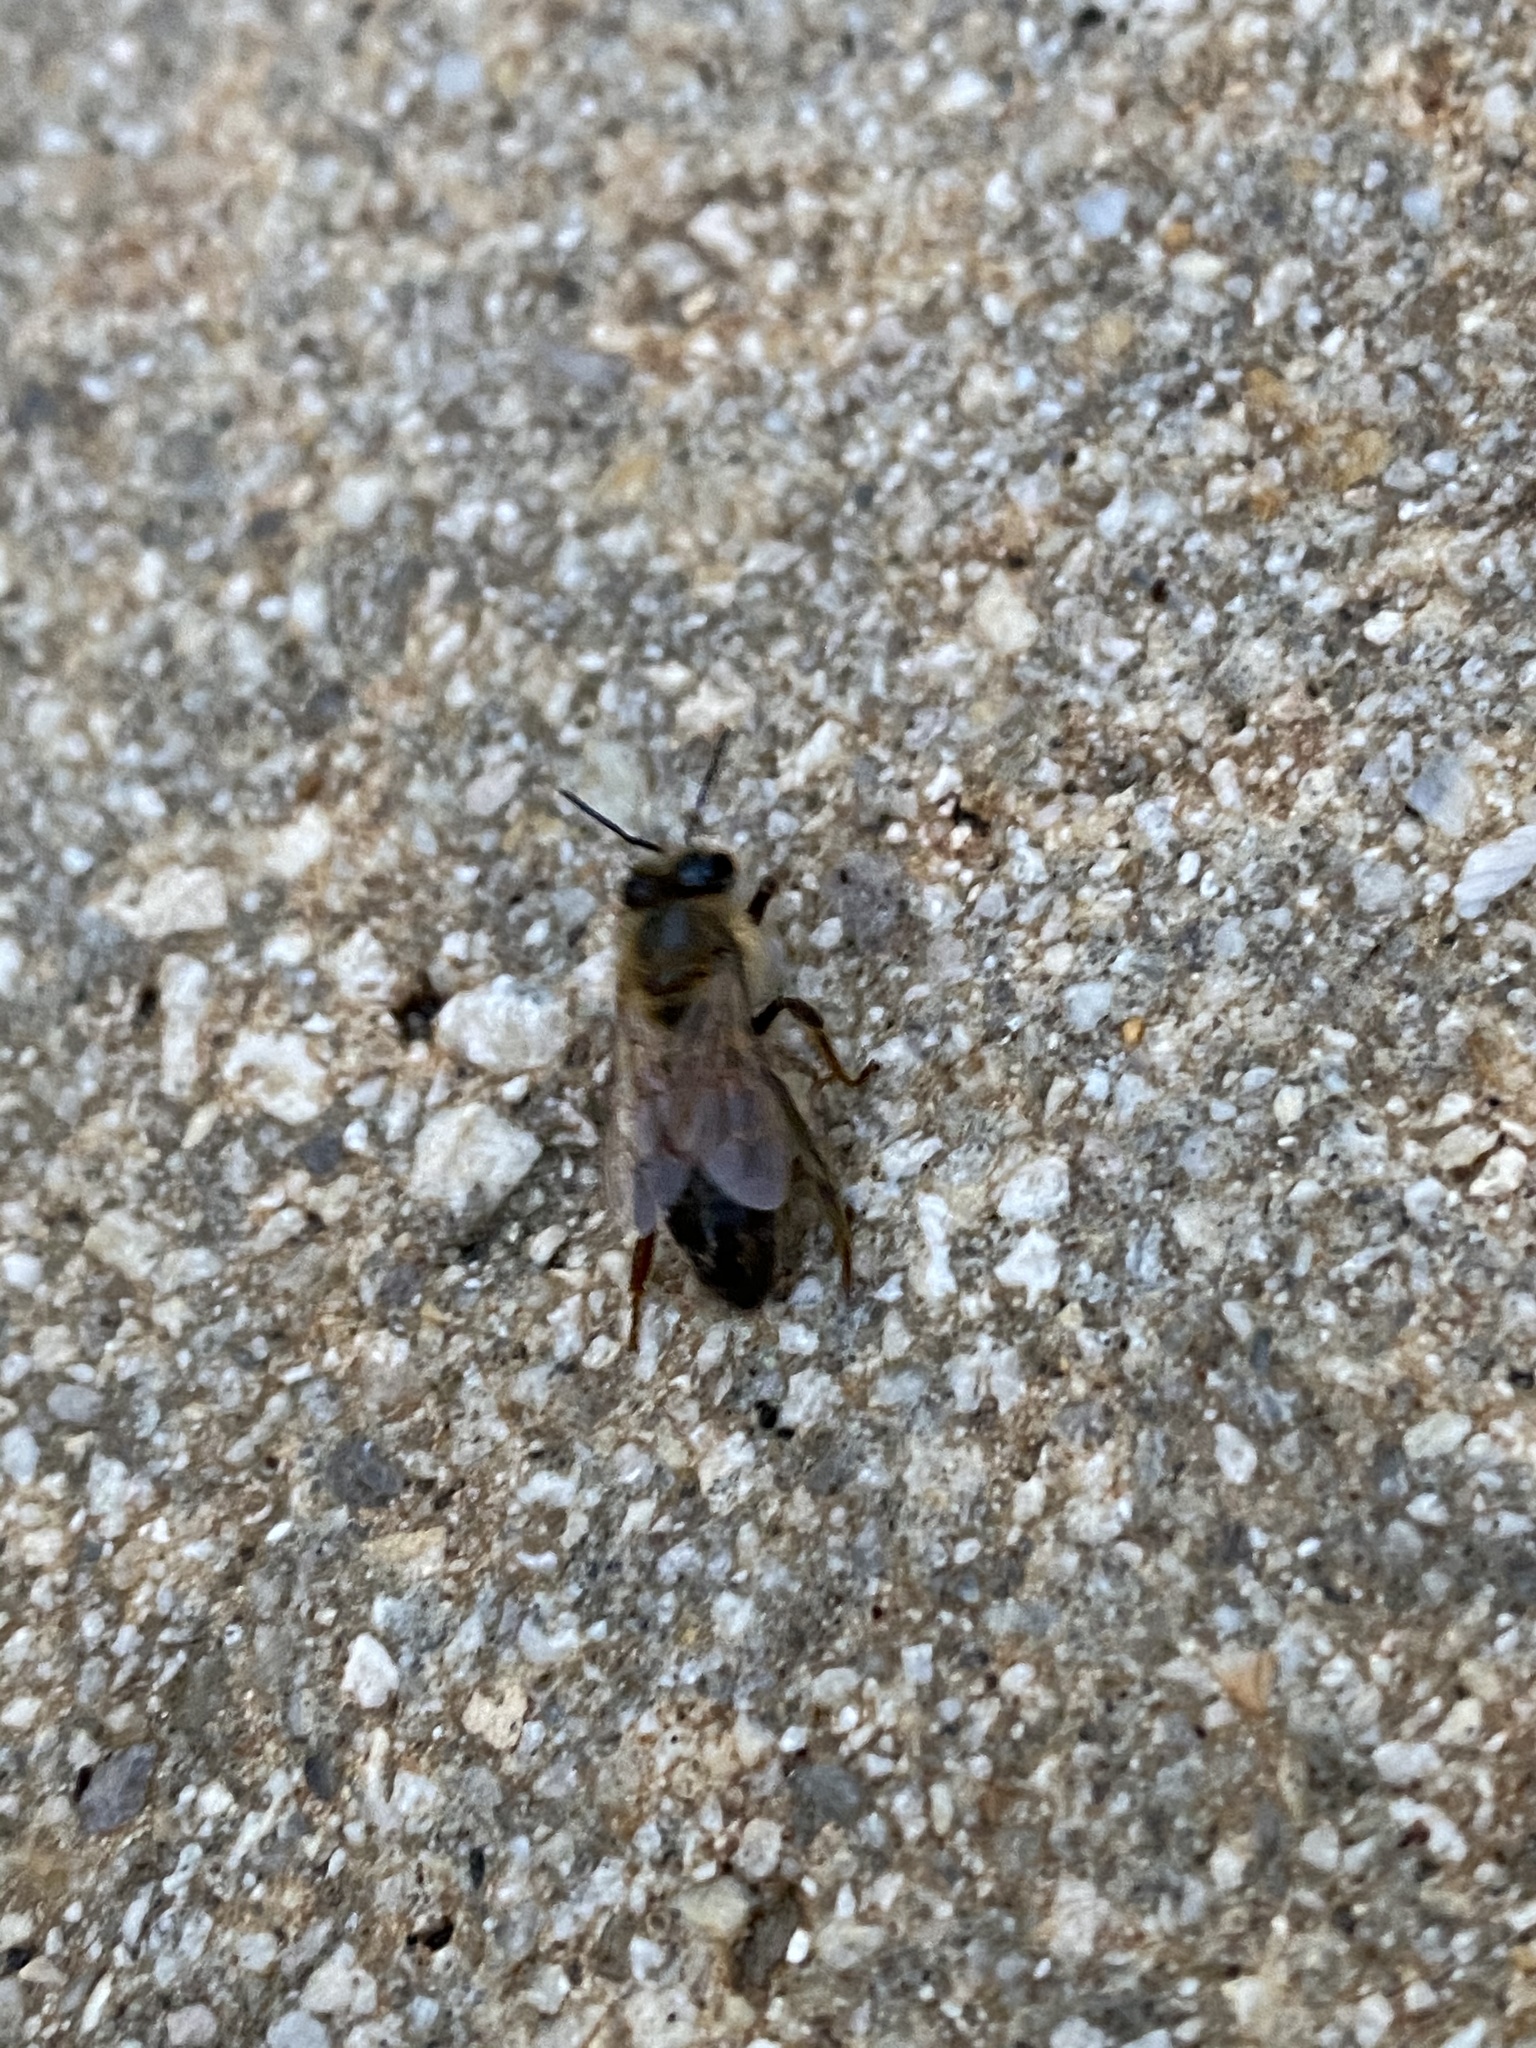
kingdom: Animalia
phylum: Arthropoda
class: Insecta
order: Hymenoptera
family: Apidae
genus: Apis
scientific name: Apis mellifera
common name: Honey bee
